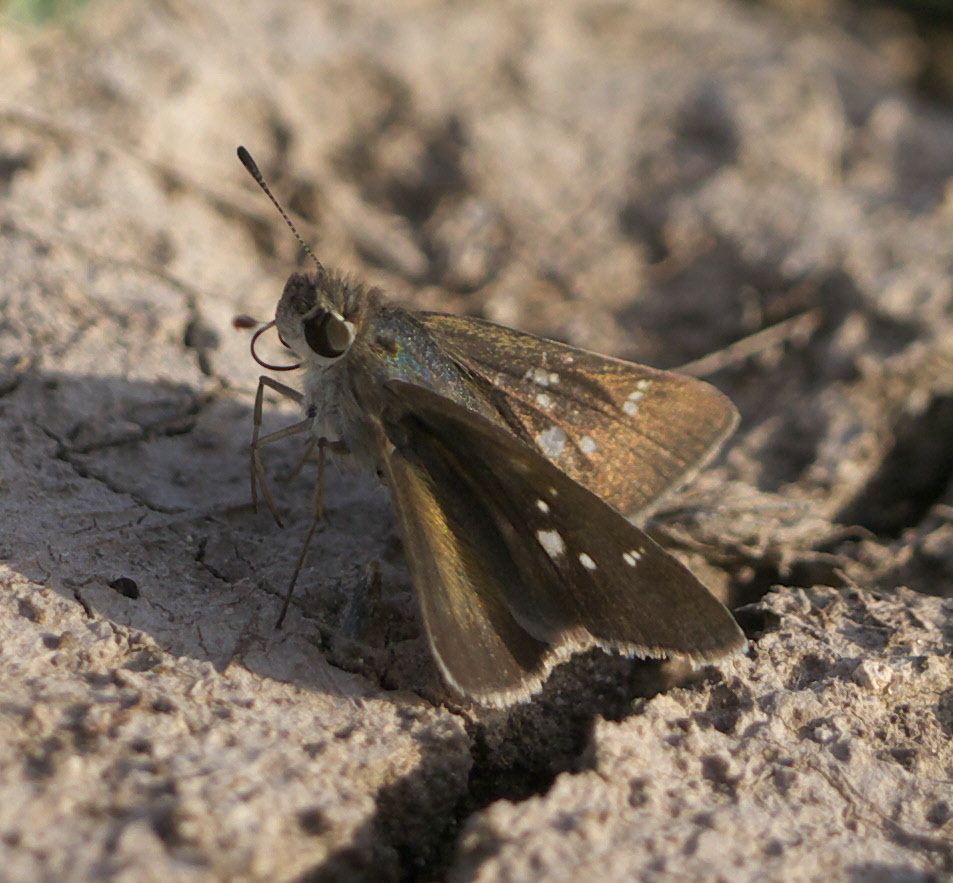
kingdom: Animalia
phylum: Arthropoda
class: Insecta
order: Lepidoptera
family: Hesperiidae
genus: Lerodea
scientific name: Lerodea eufala
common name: Eufala skipper
